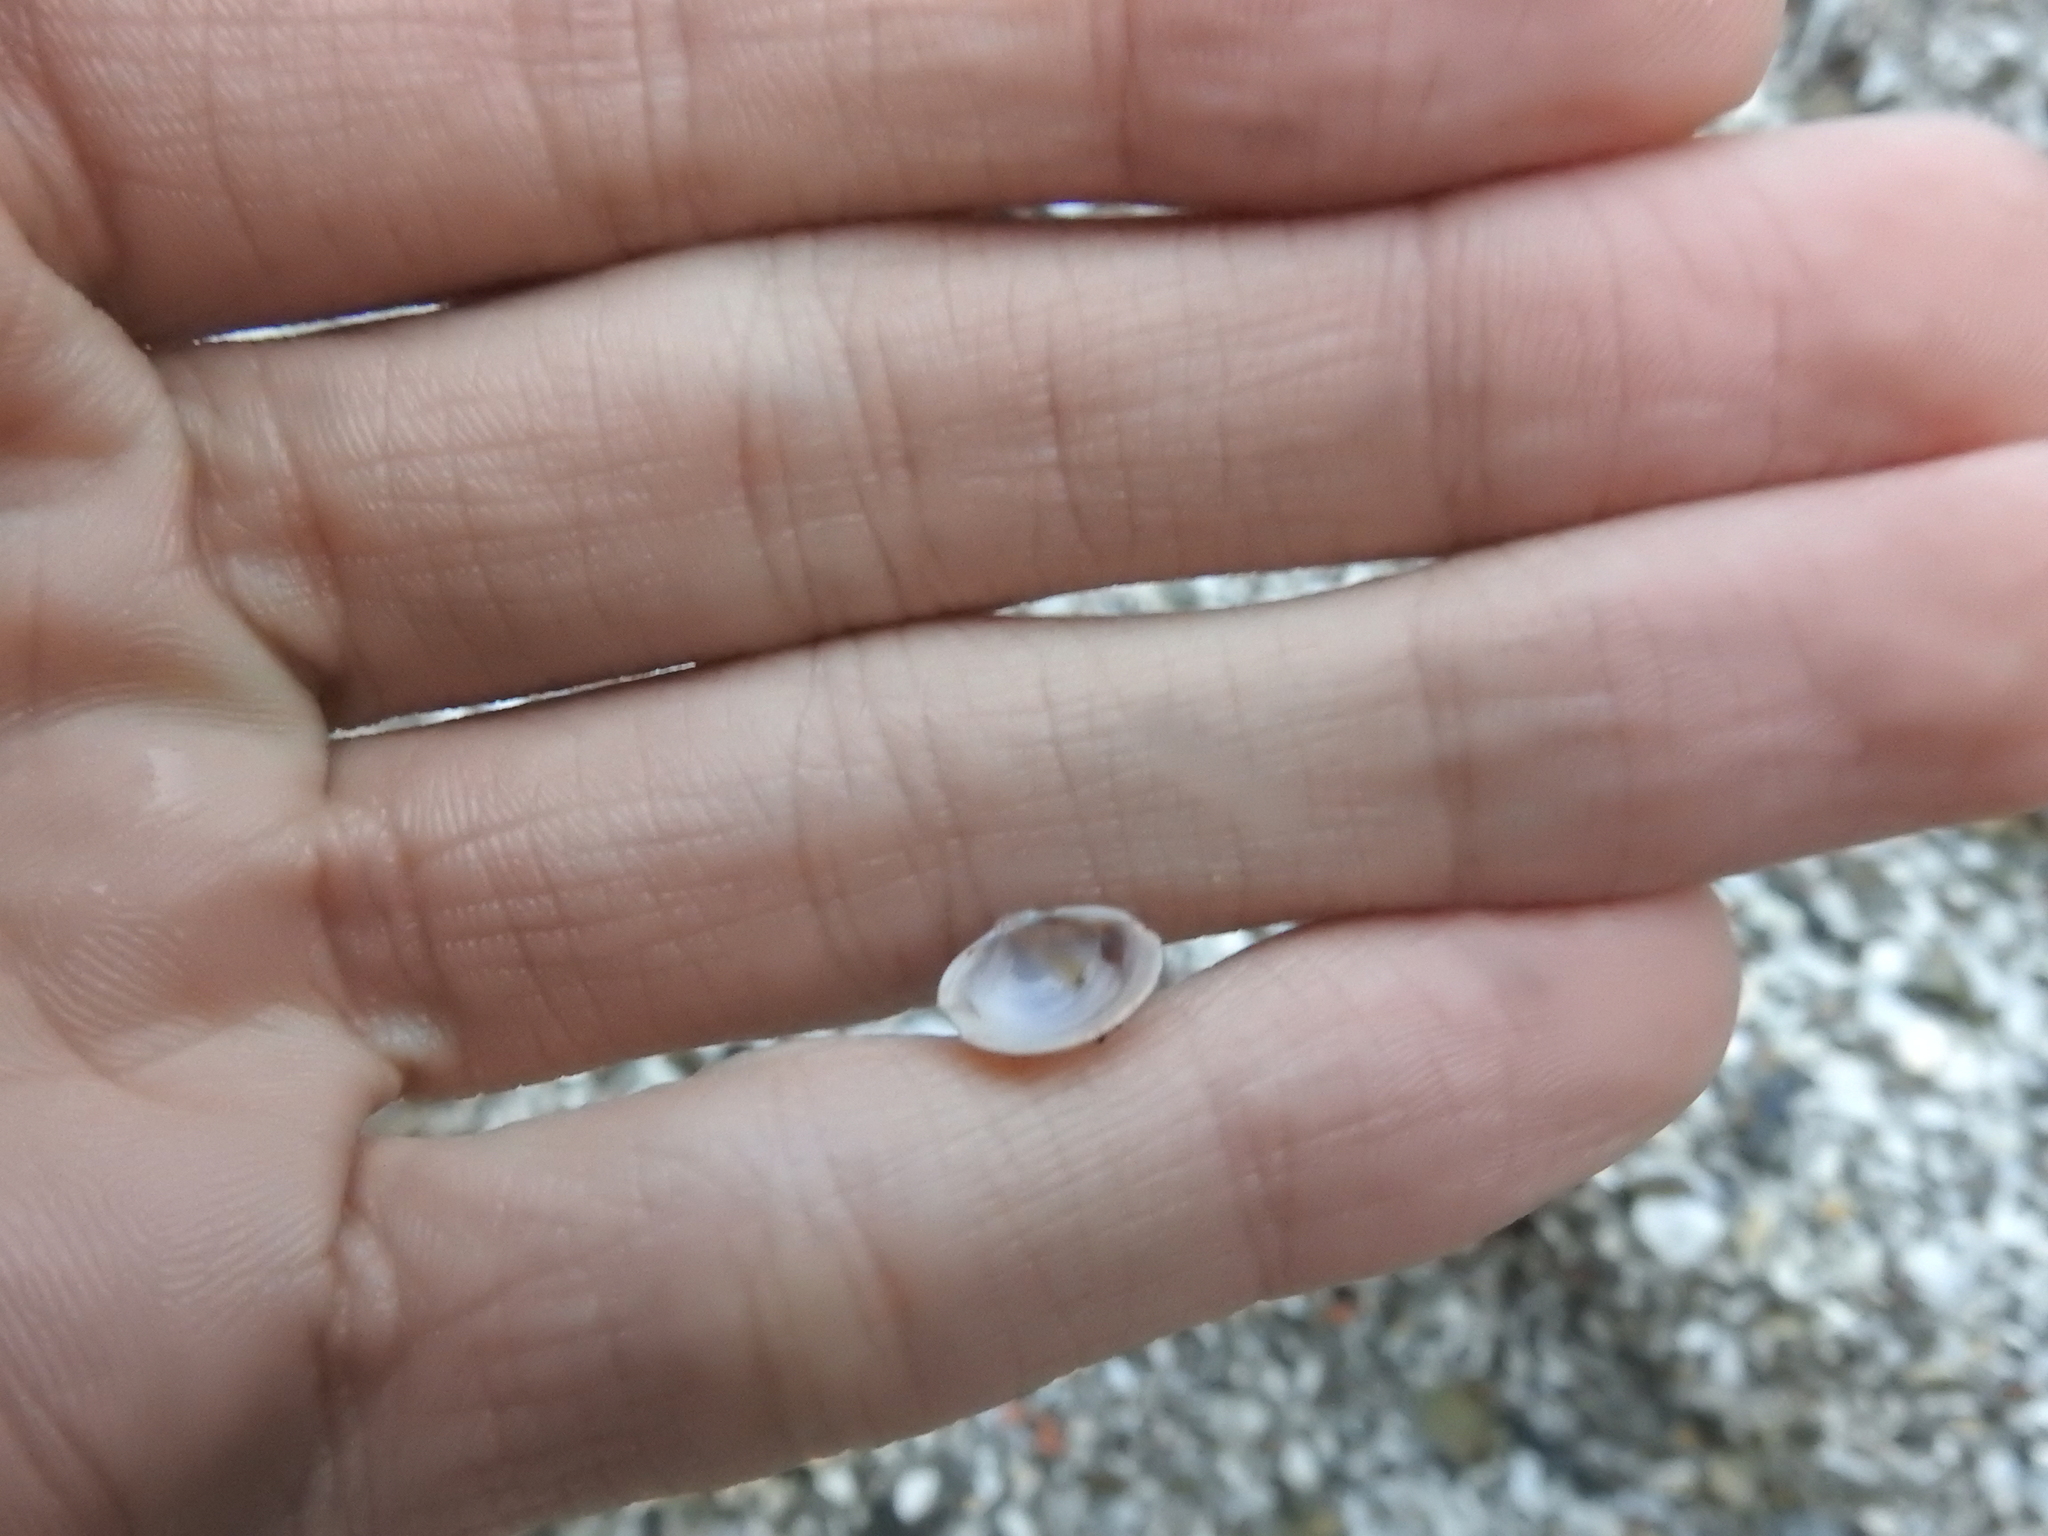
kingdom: Animalia
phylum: Mollusca
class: Bivalvia
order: Venerida
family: Cyrenidae
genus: Corbicula
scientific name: Corbicula fluminea
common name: Asian clam
